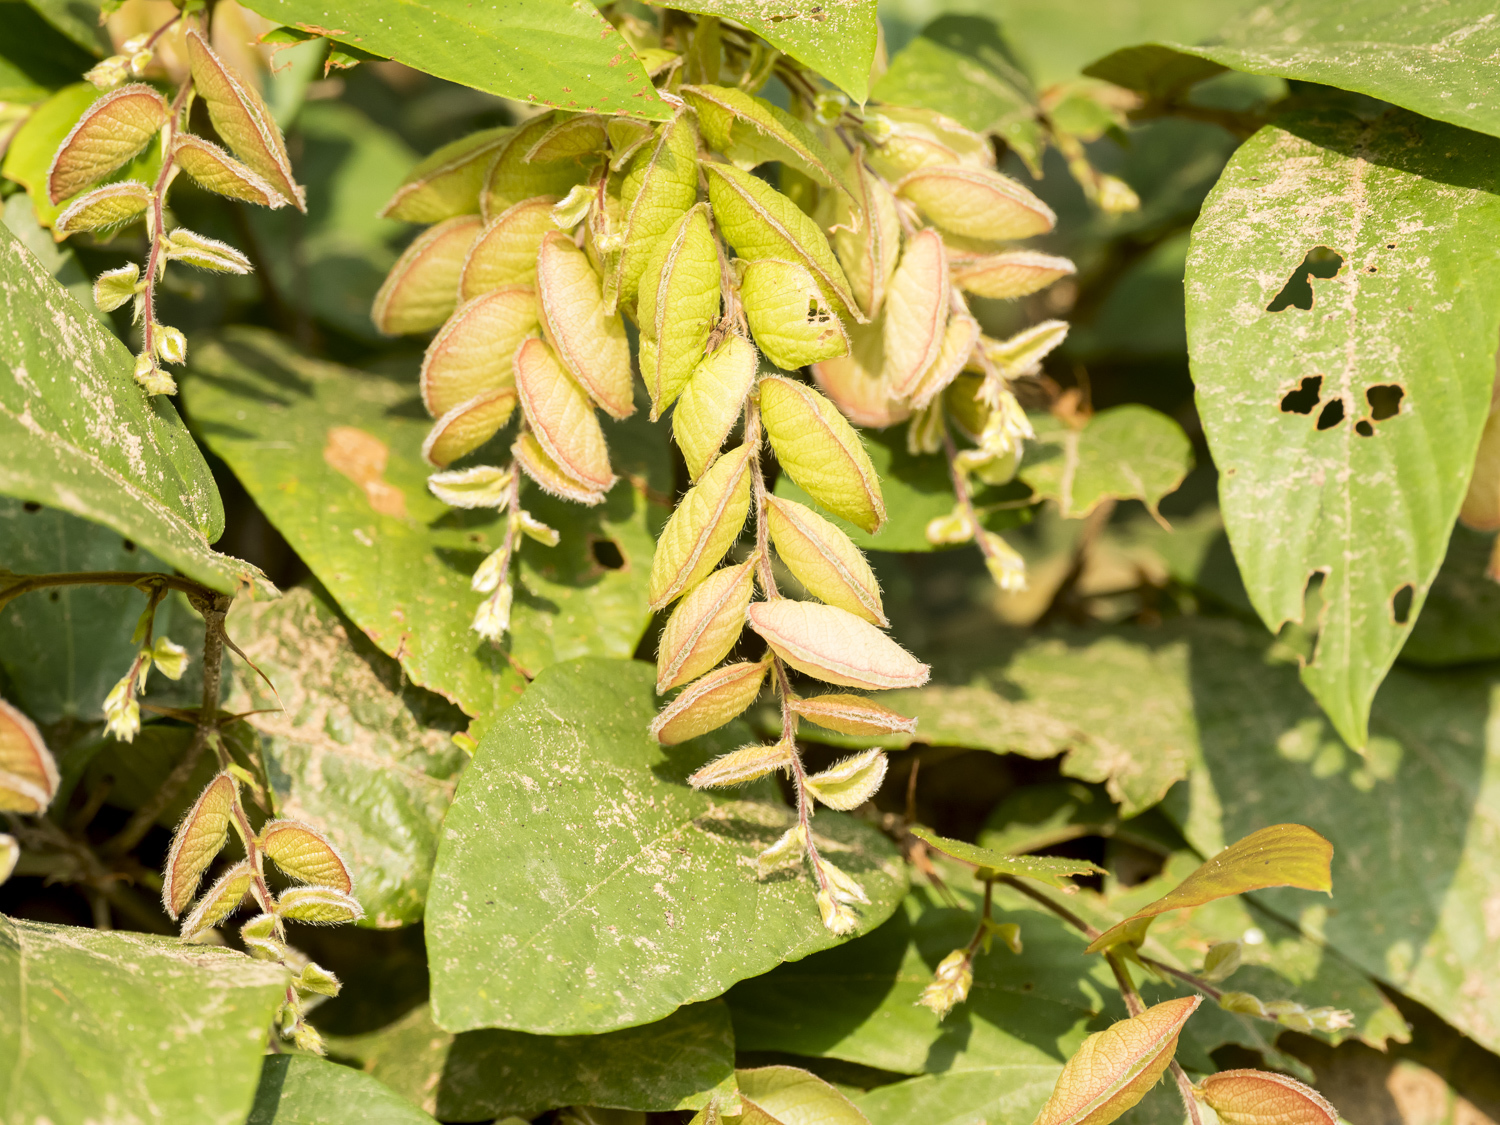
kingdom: Plantae
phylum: Tracheophyta
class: Magnoliopsida
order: Fabales
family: Fabaceae
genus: Flemingia
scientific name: Flemingia strobilifera
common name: Wild hops
